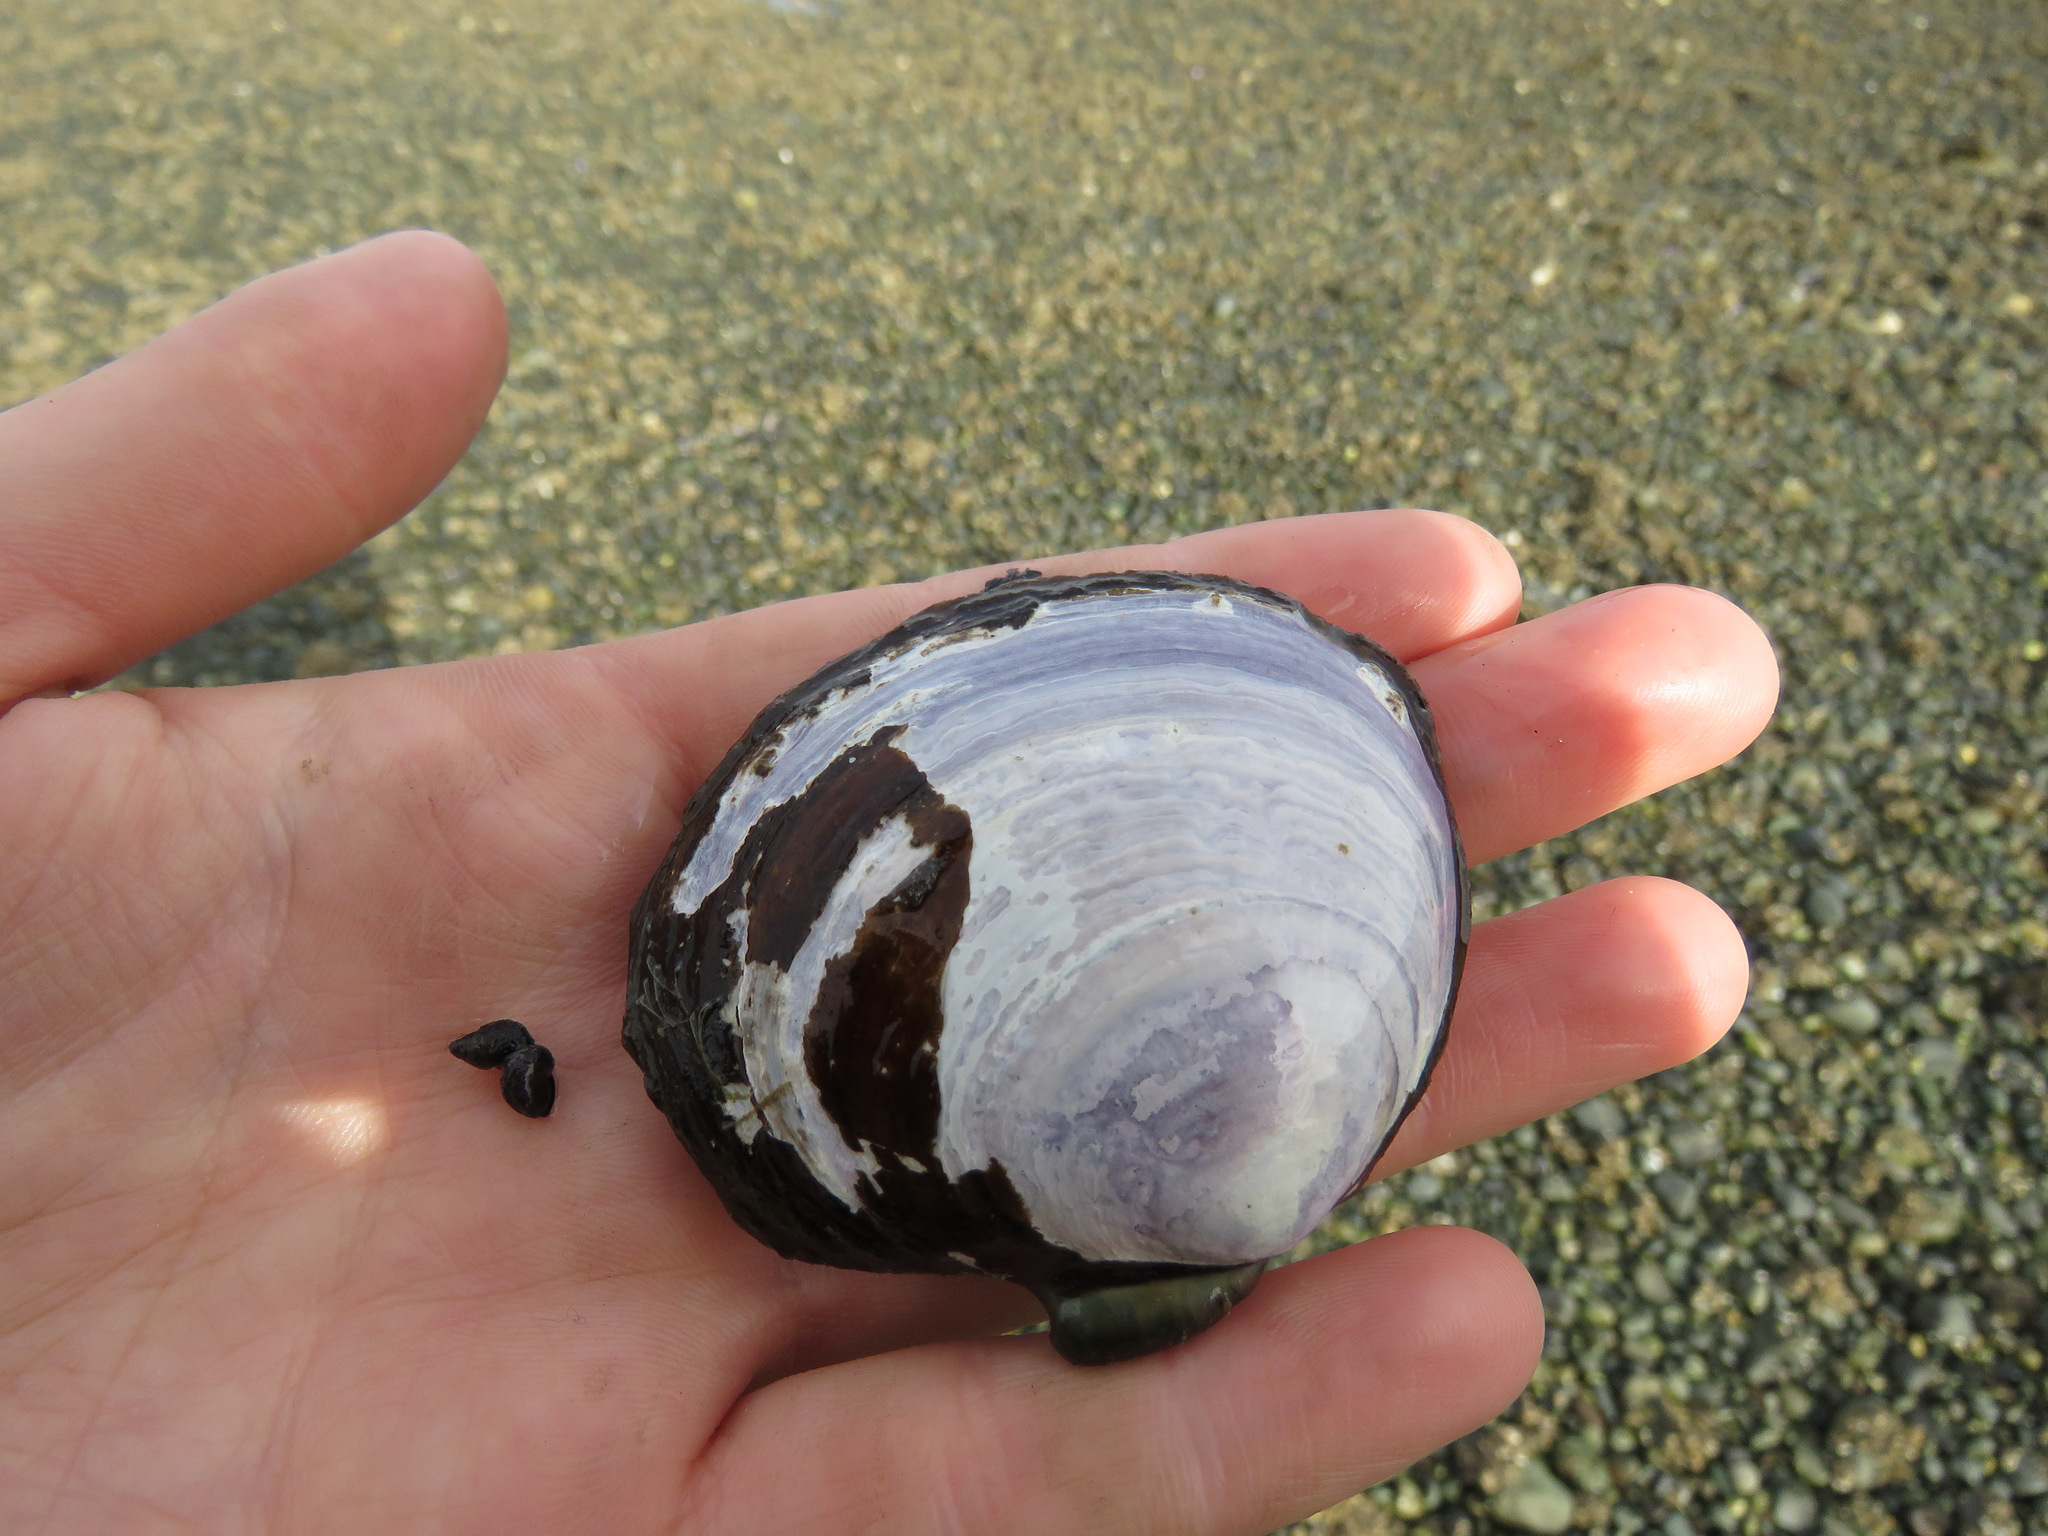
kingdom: Animalia
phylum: Mollusca
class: Bivalvia
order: Cardiida
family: Psammobiidae
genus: Nuttallia
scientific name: Nuttallia obscurata
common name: Purple mahogany-clam
